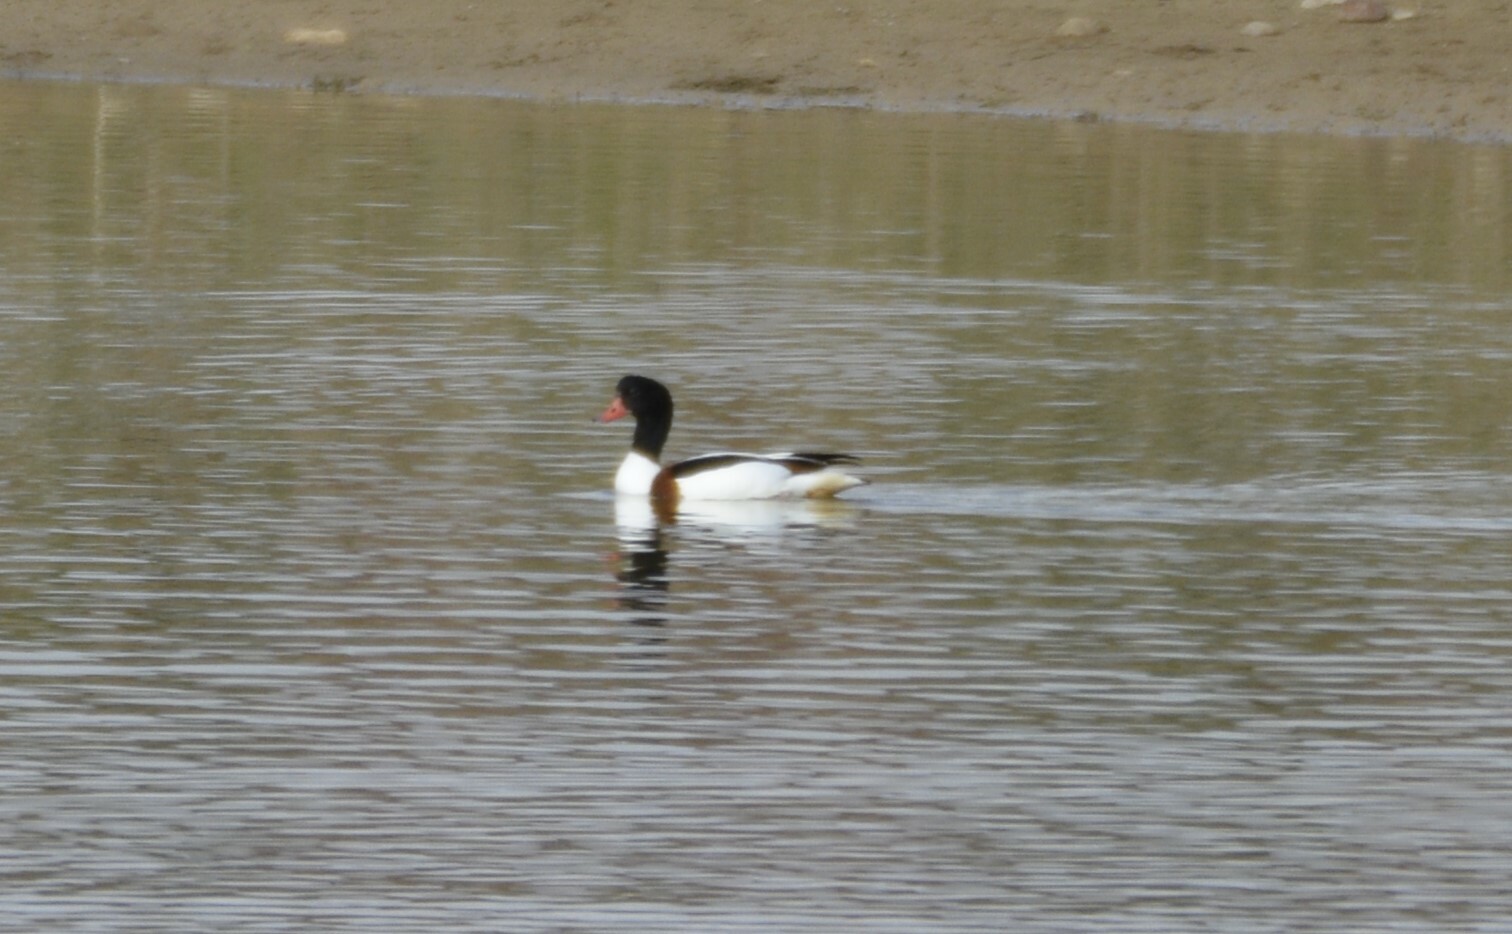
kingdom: Animalia
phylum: Chordata
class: Aves
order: Anseriformes
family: Anatidae
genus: Tadorna
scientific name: Tadorna tadorna
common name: Common shelduck
